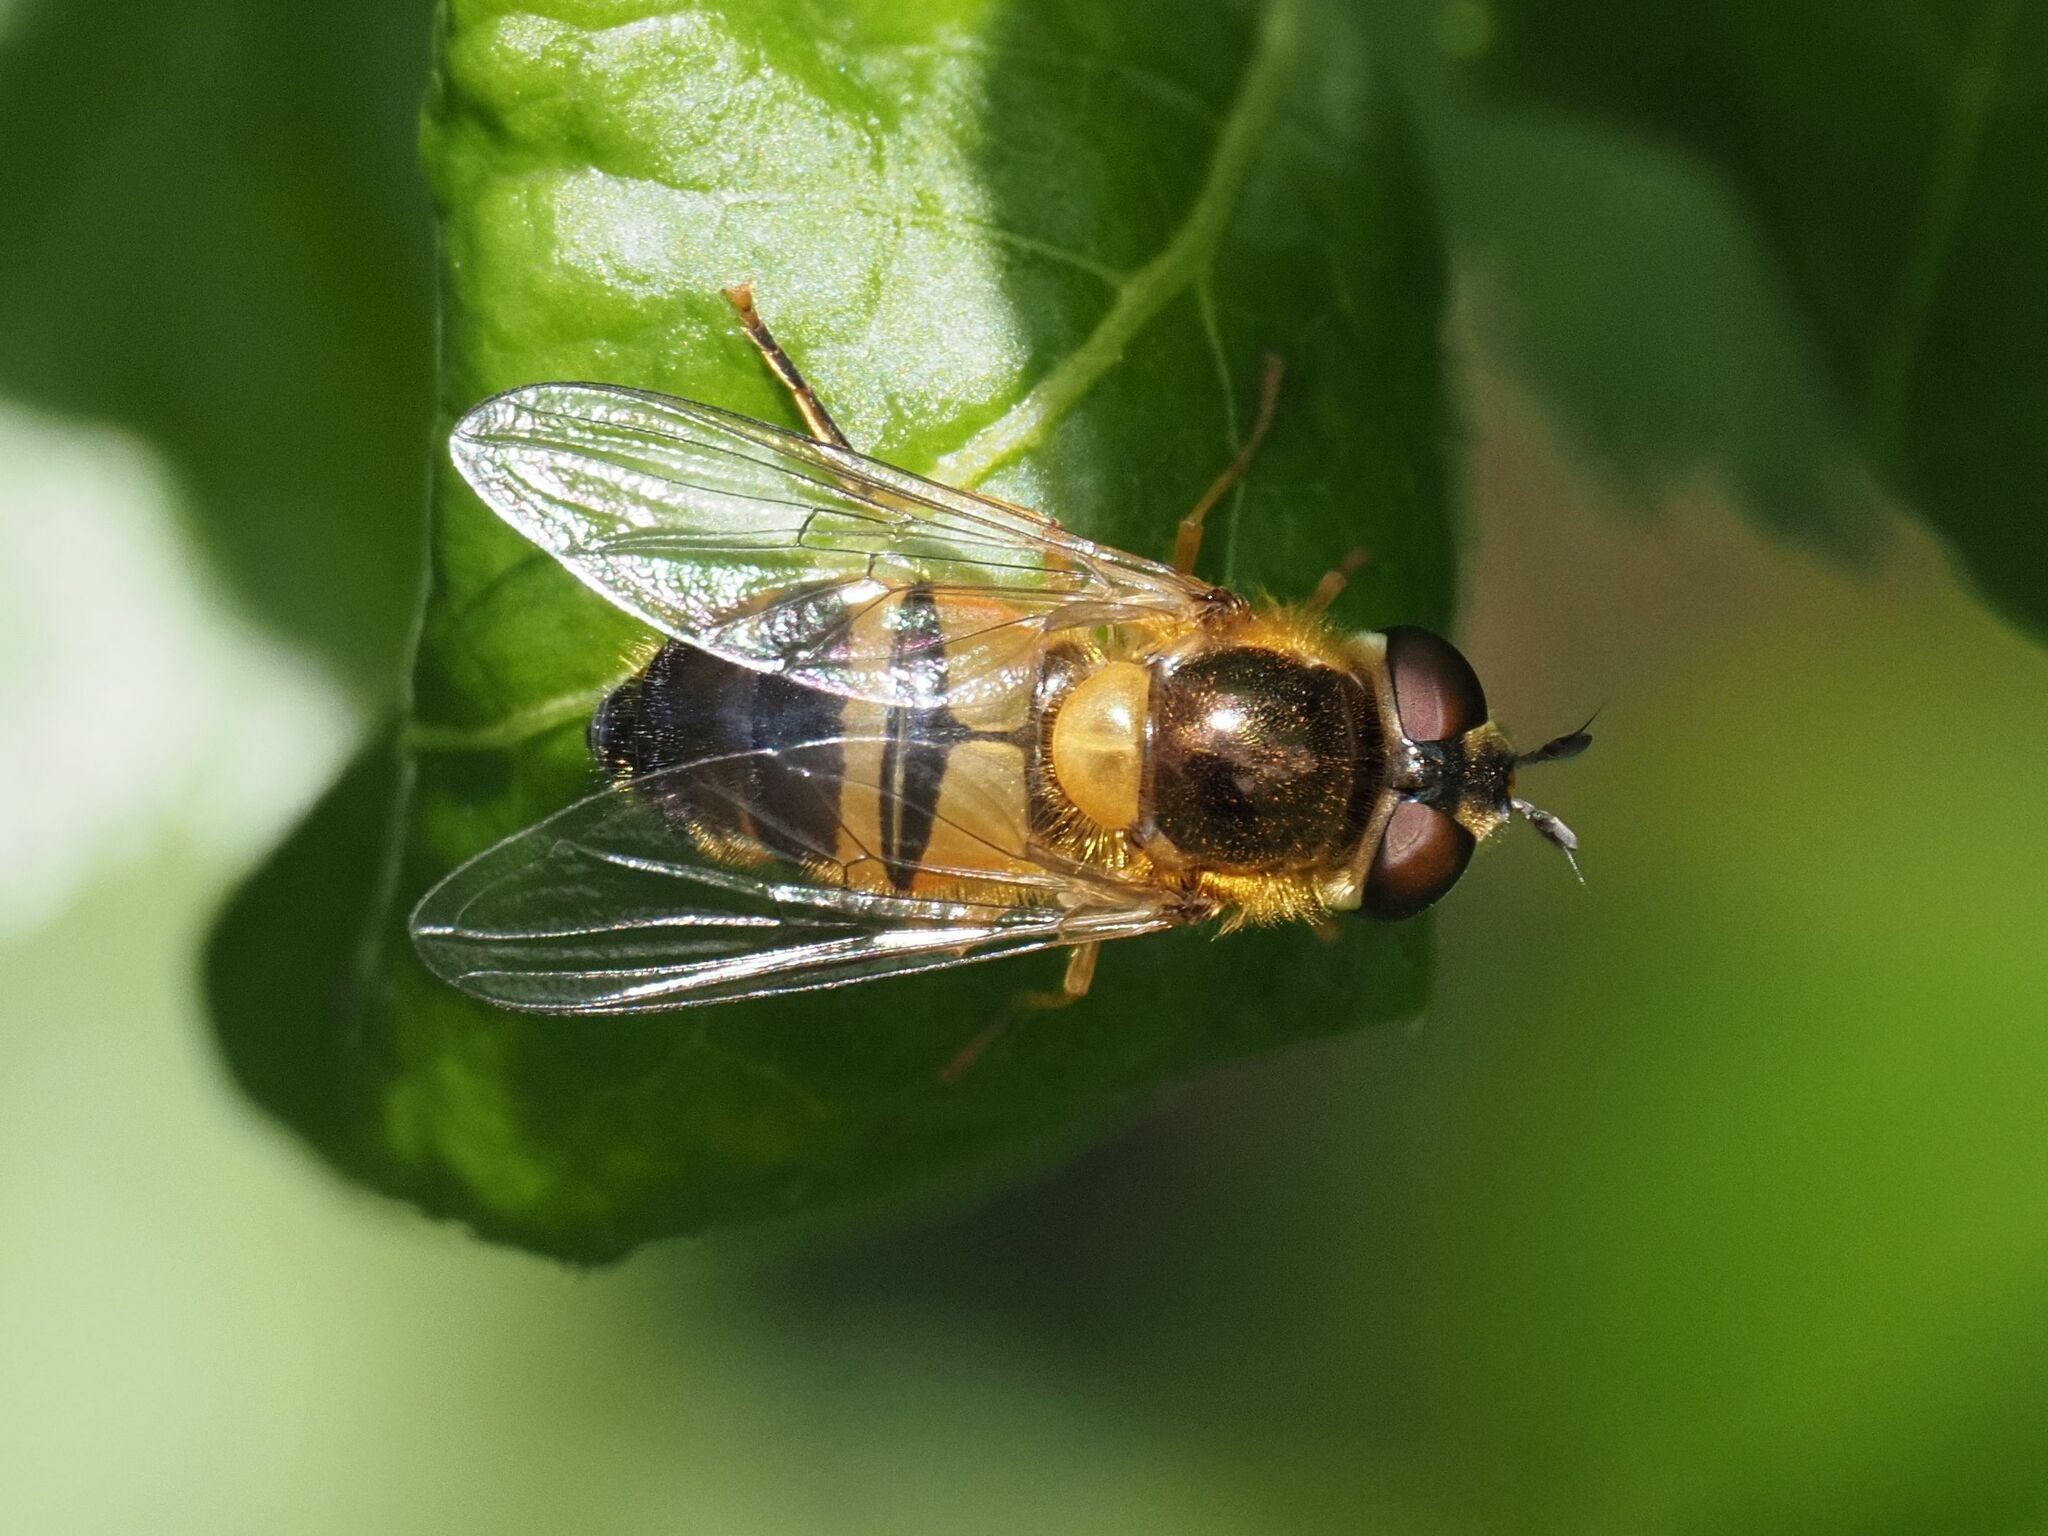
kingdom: Animalia
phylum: Arthropoda
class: Insecta
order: Diptera
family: Syrphidae
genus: Epistrophe
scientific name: Epistrophe eligans
